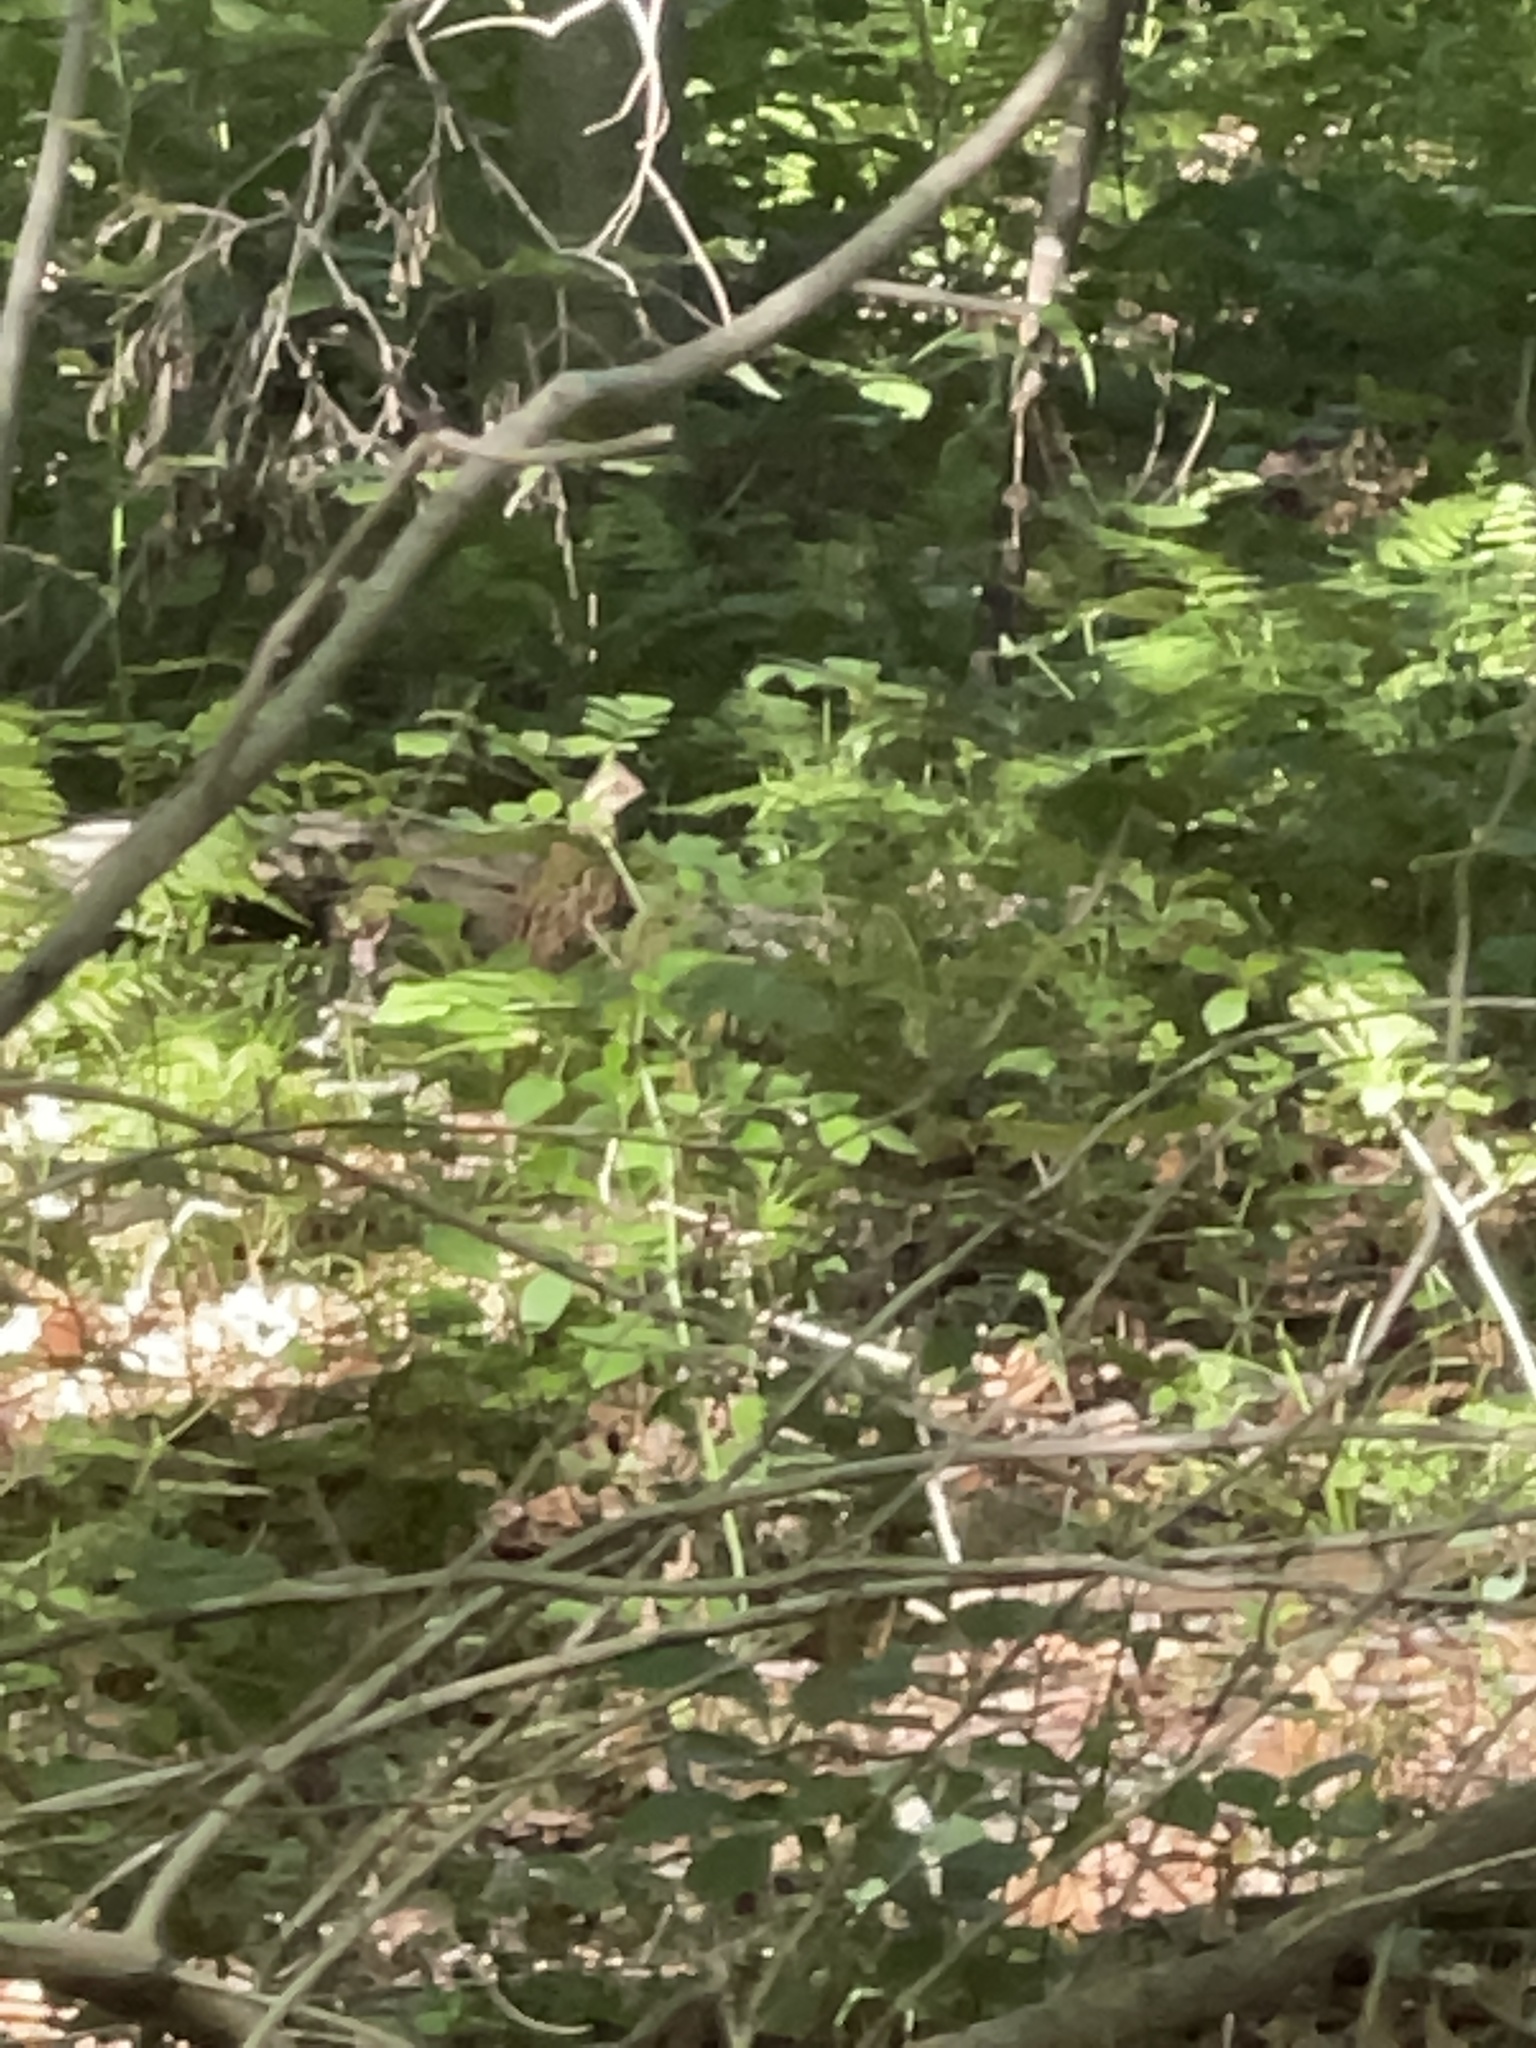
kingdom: Animalia
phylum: Chordata
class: Aves
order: Galliformes
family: Odontophoridae
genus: Colinus
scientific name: Colinus virginianus
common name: Northern bobwhite
